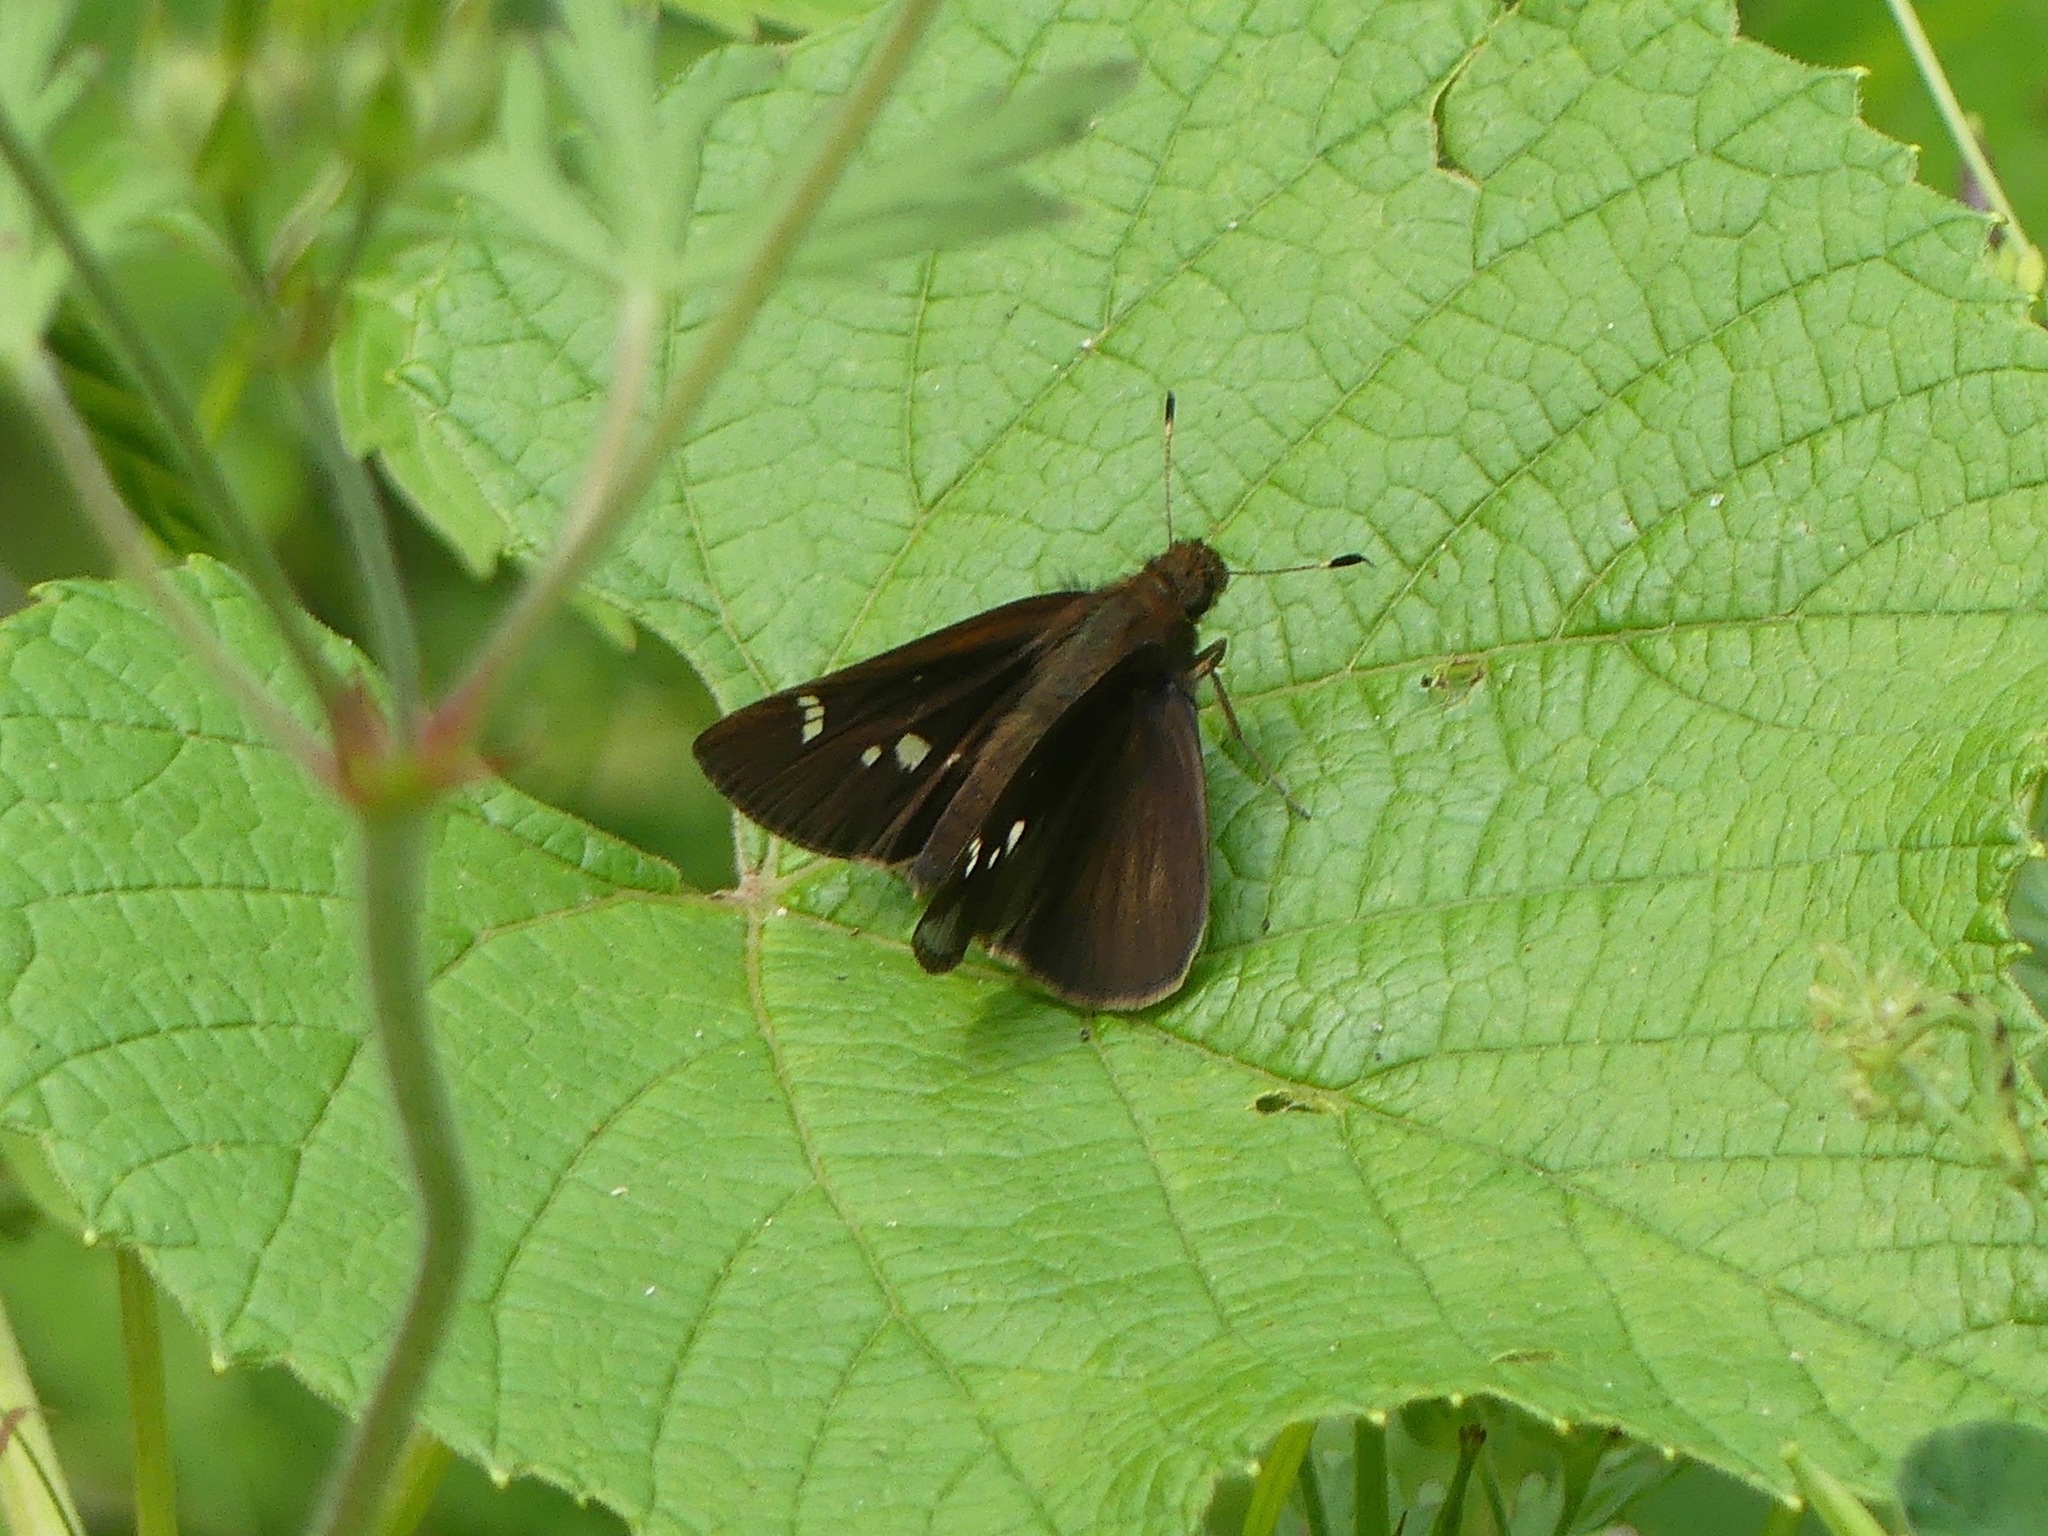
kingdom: Animalia
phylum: Arthropoda
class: Insecta
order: Lepidoptera
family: Hesperiidae
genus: Lerema
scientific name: Lerema accius
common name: Clouded skipper
